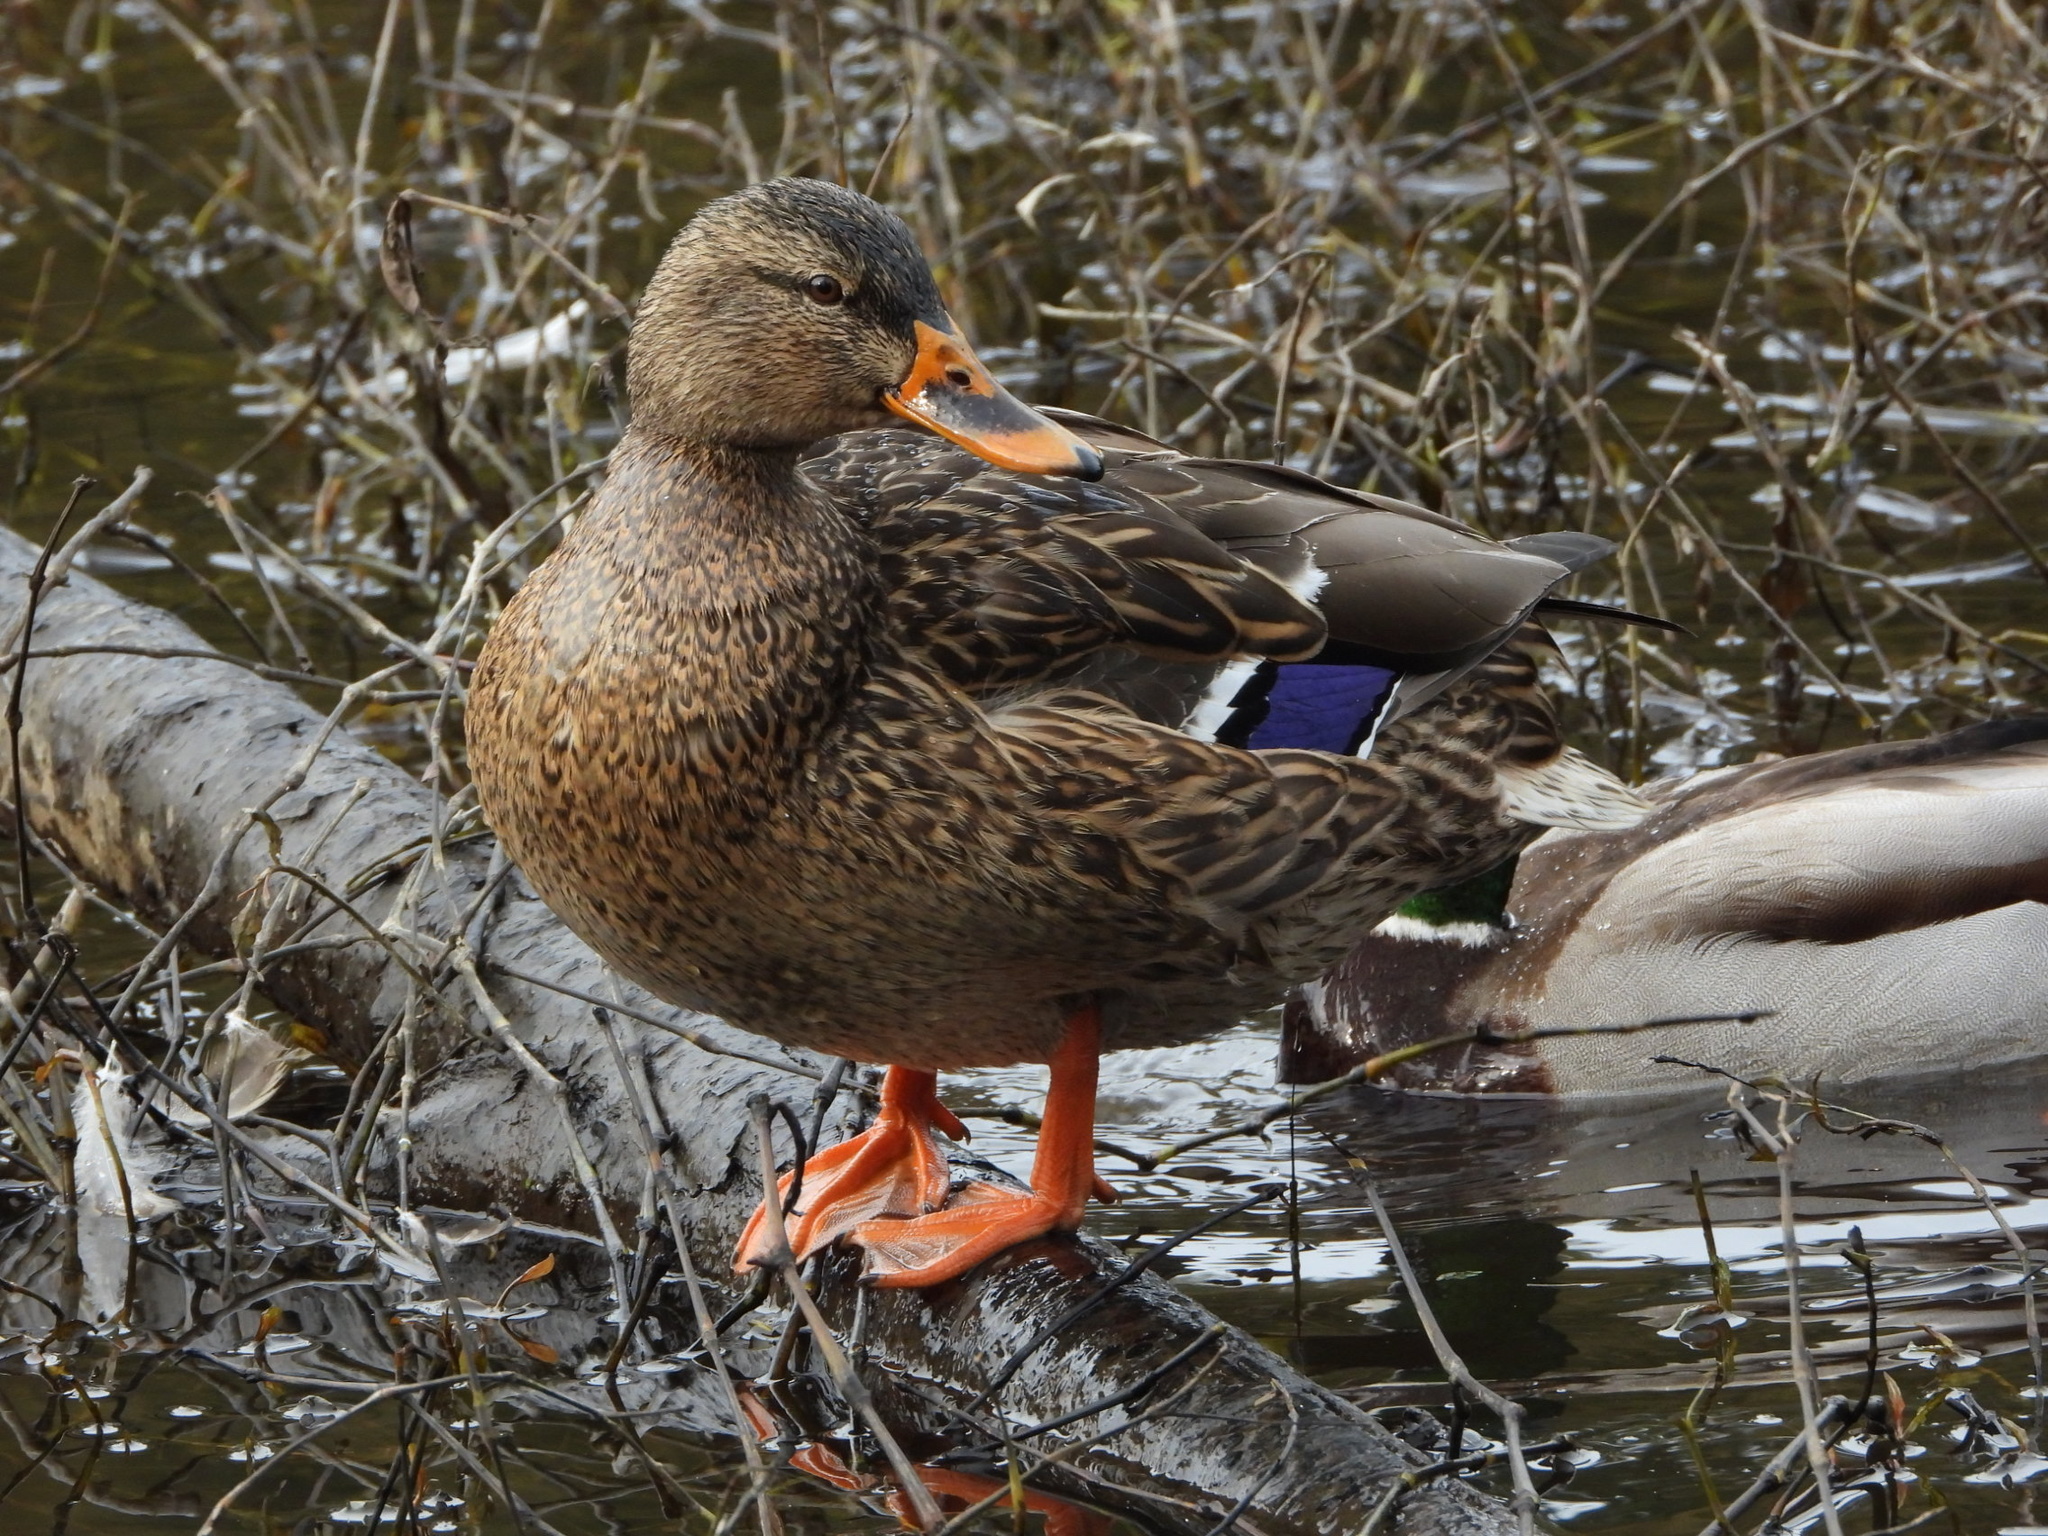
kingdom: Animalia
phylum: Chordata
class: Aves
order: Anseriformes
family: Anatidae
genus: Anas
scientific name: Anas platyrhynchos
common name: Mallard
